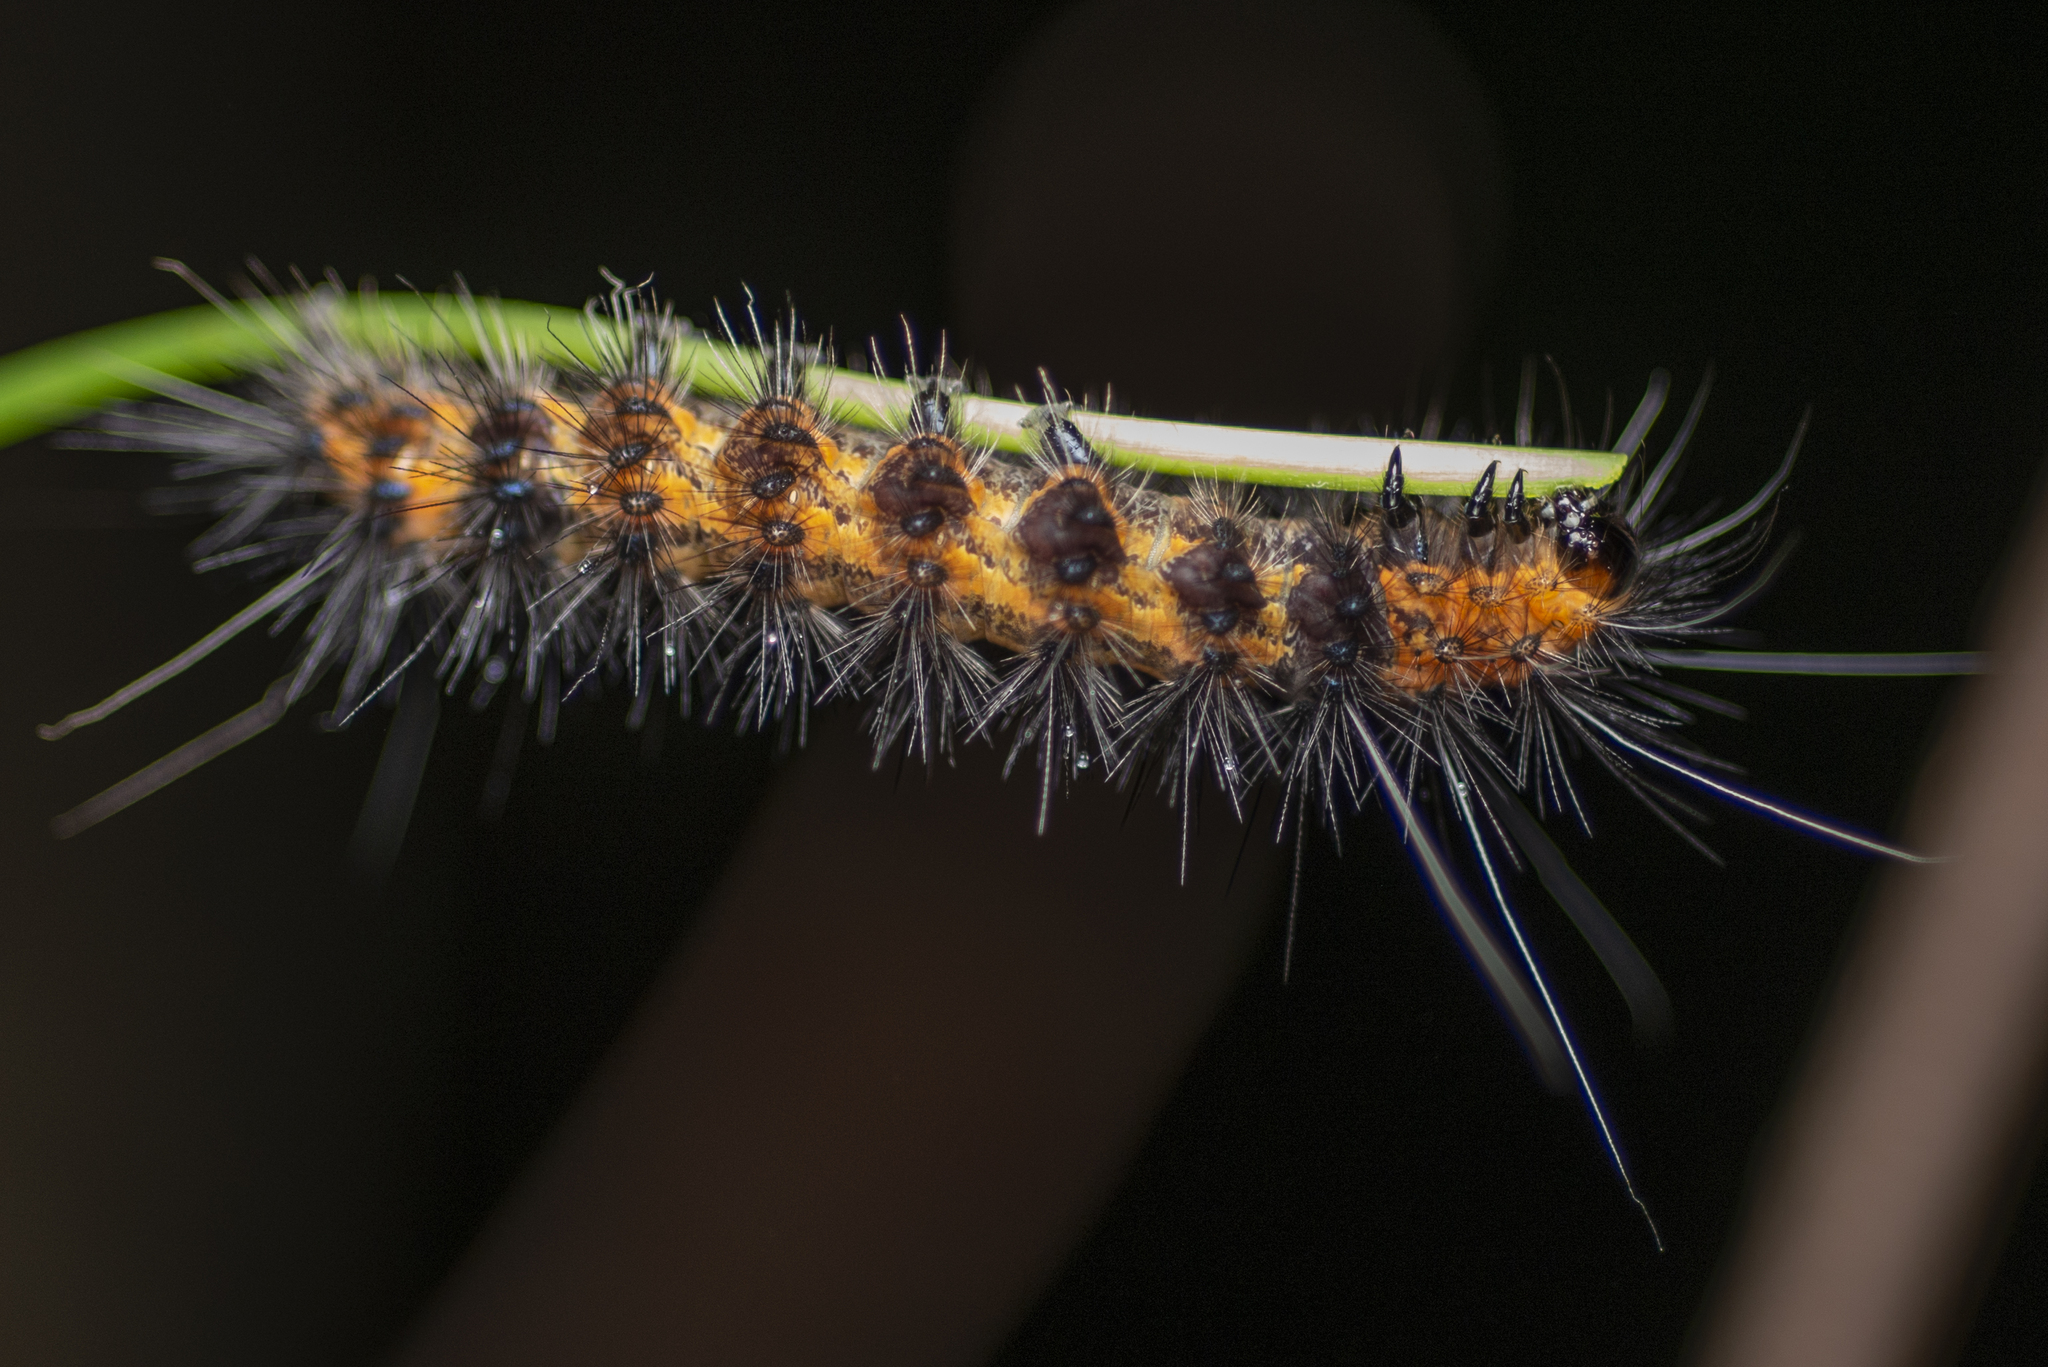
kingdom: Animalia
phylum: Arthropoda
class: Insecta
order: Lepidoptera
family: Erebidae
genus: Spilarctia
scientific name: Spilarctia subcarnea
